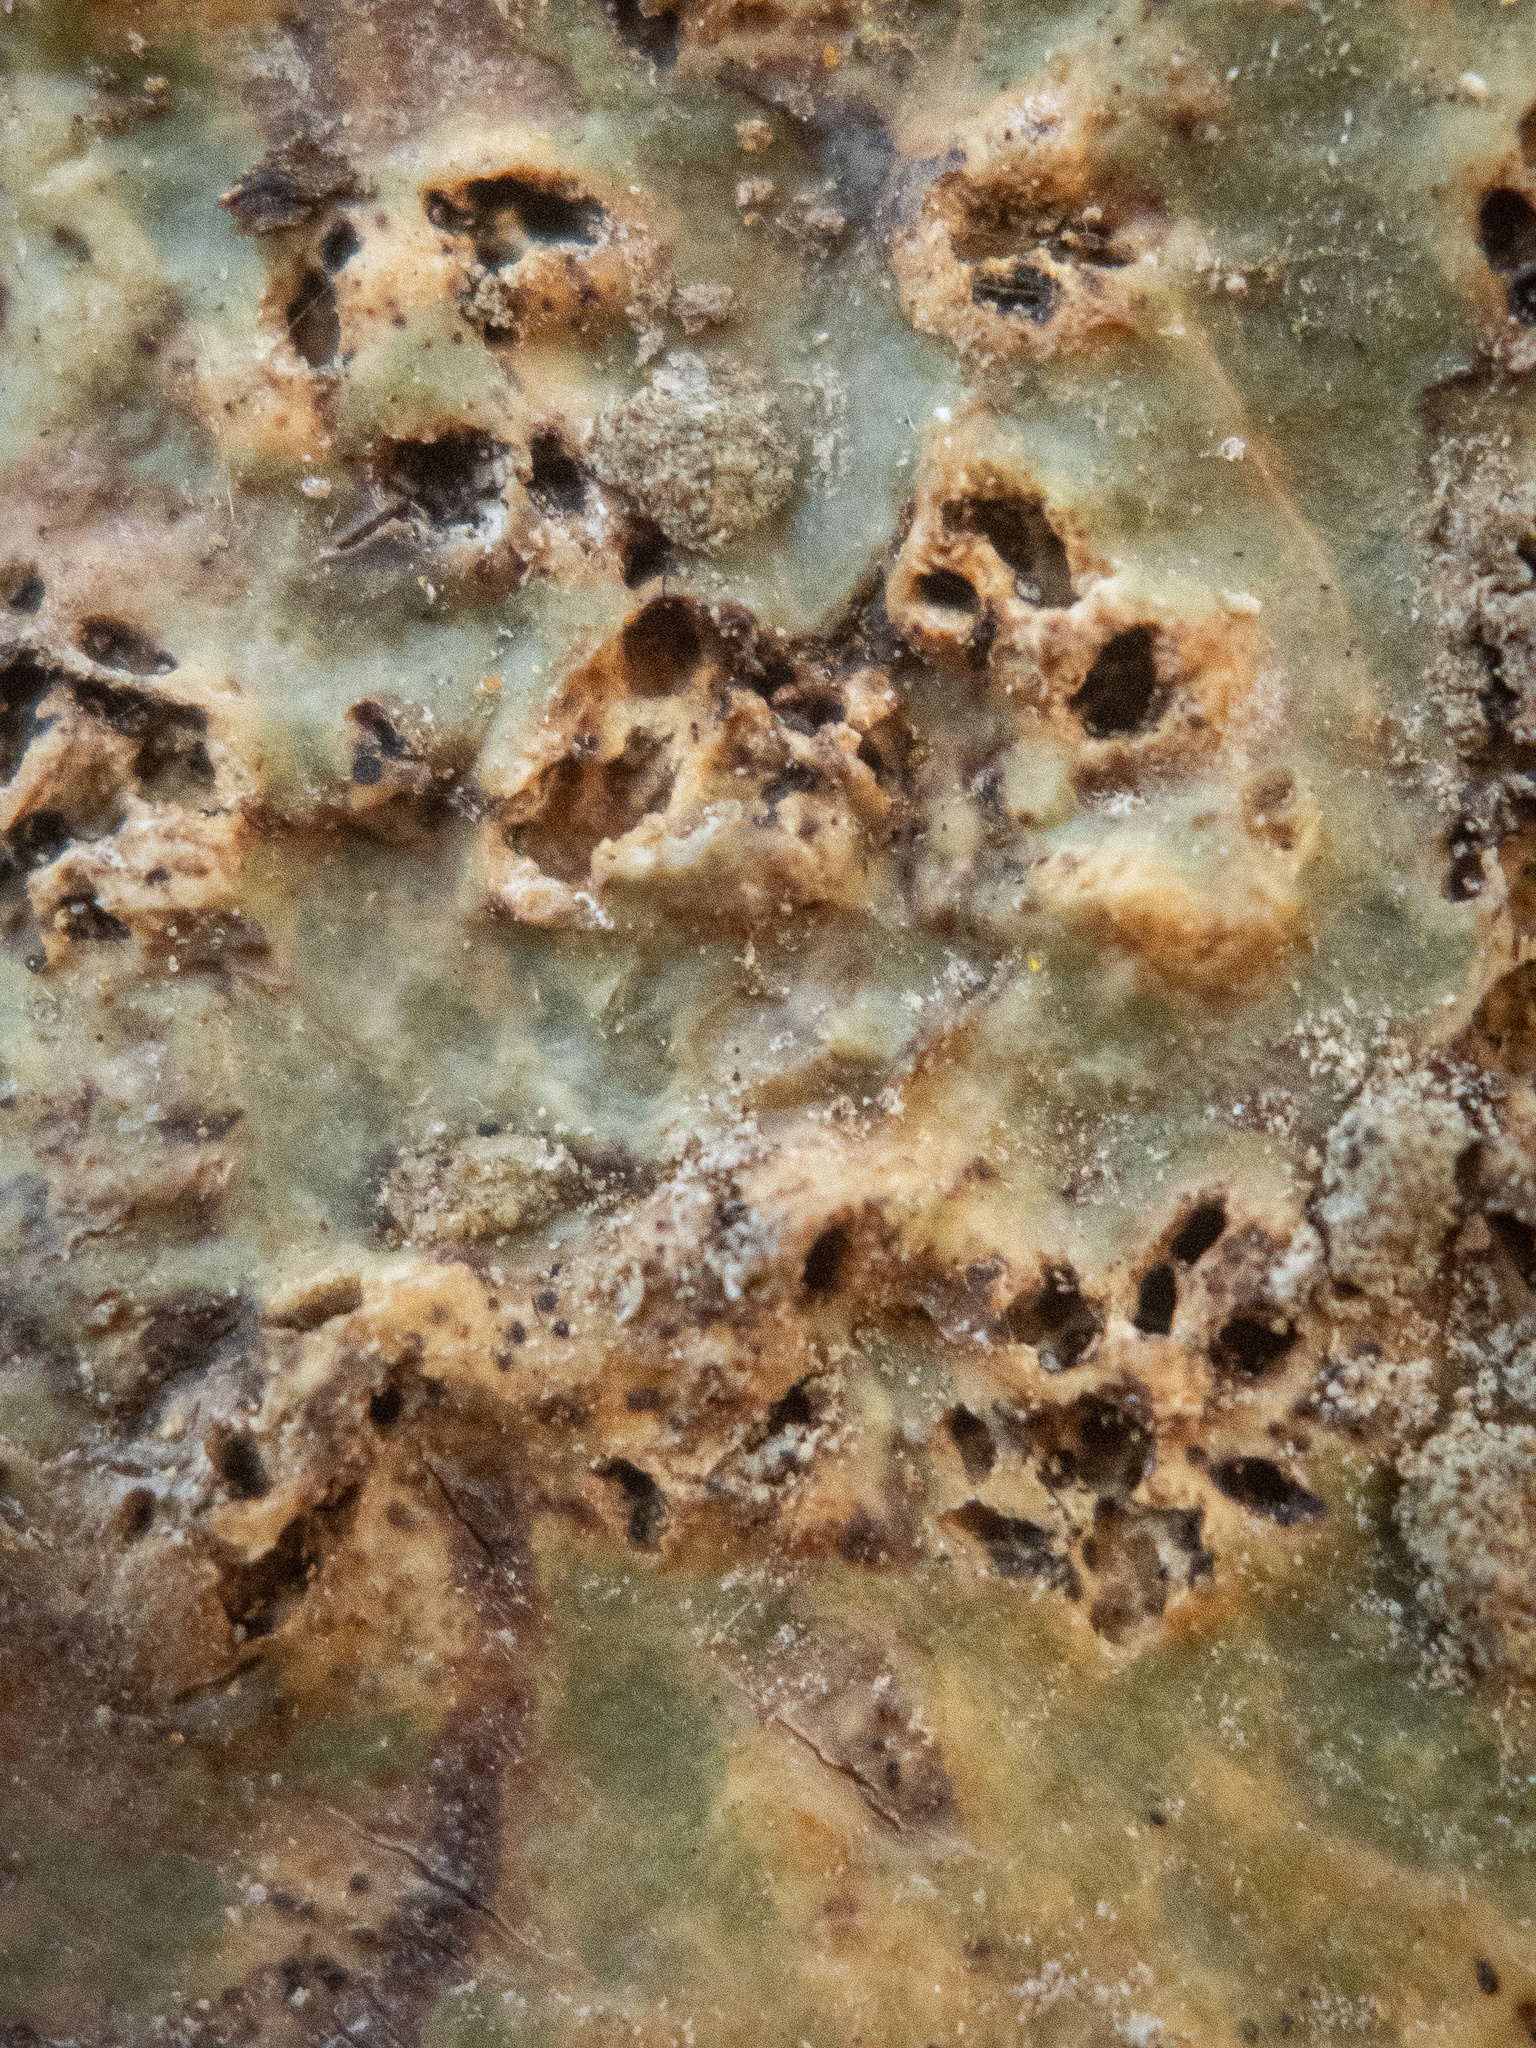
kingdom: Fungi
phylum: Ascomycota
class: Dothideomycetes
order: Trypetheliales
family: Trypetheliaceae
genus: Viridothelium
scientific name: Viridothelium virens
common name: Speckled blister lichen
